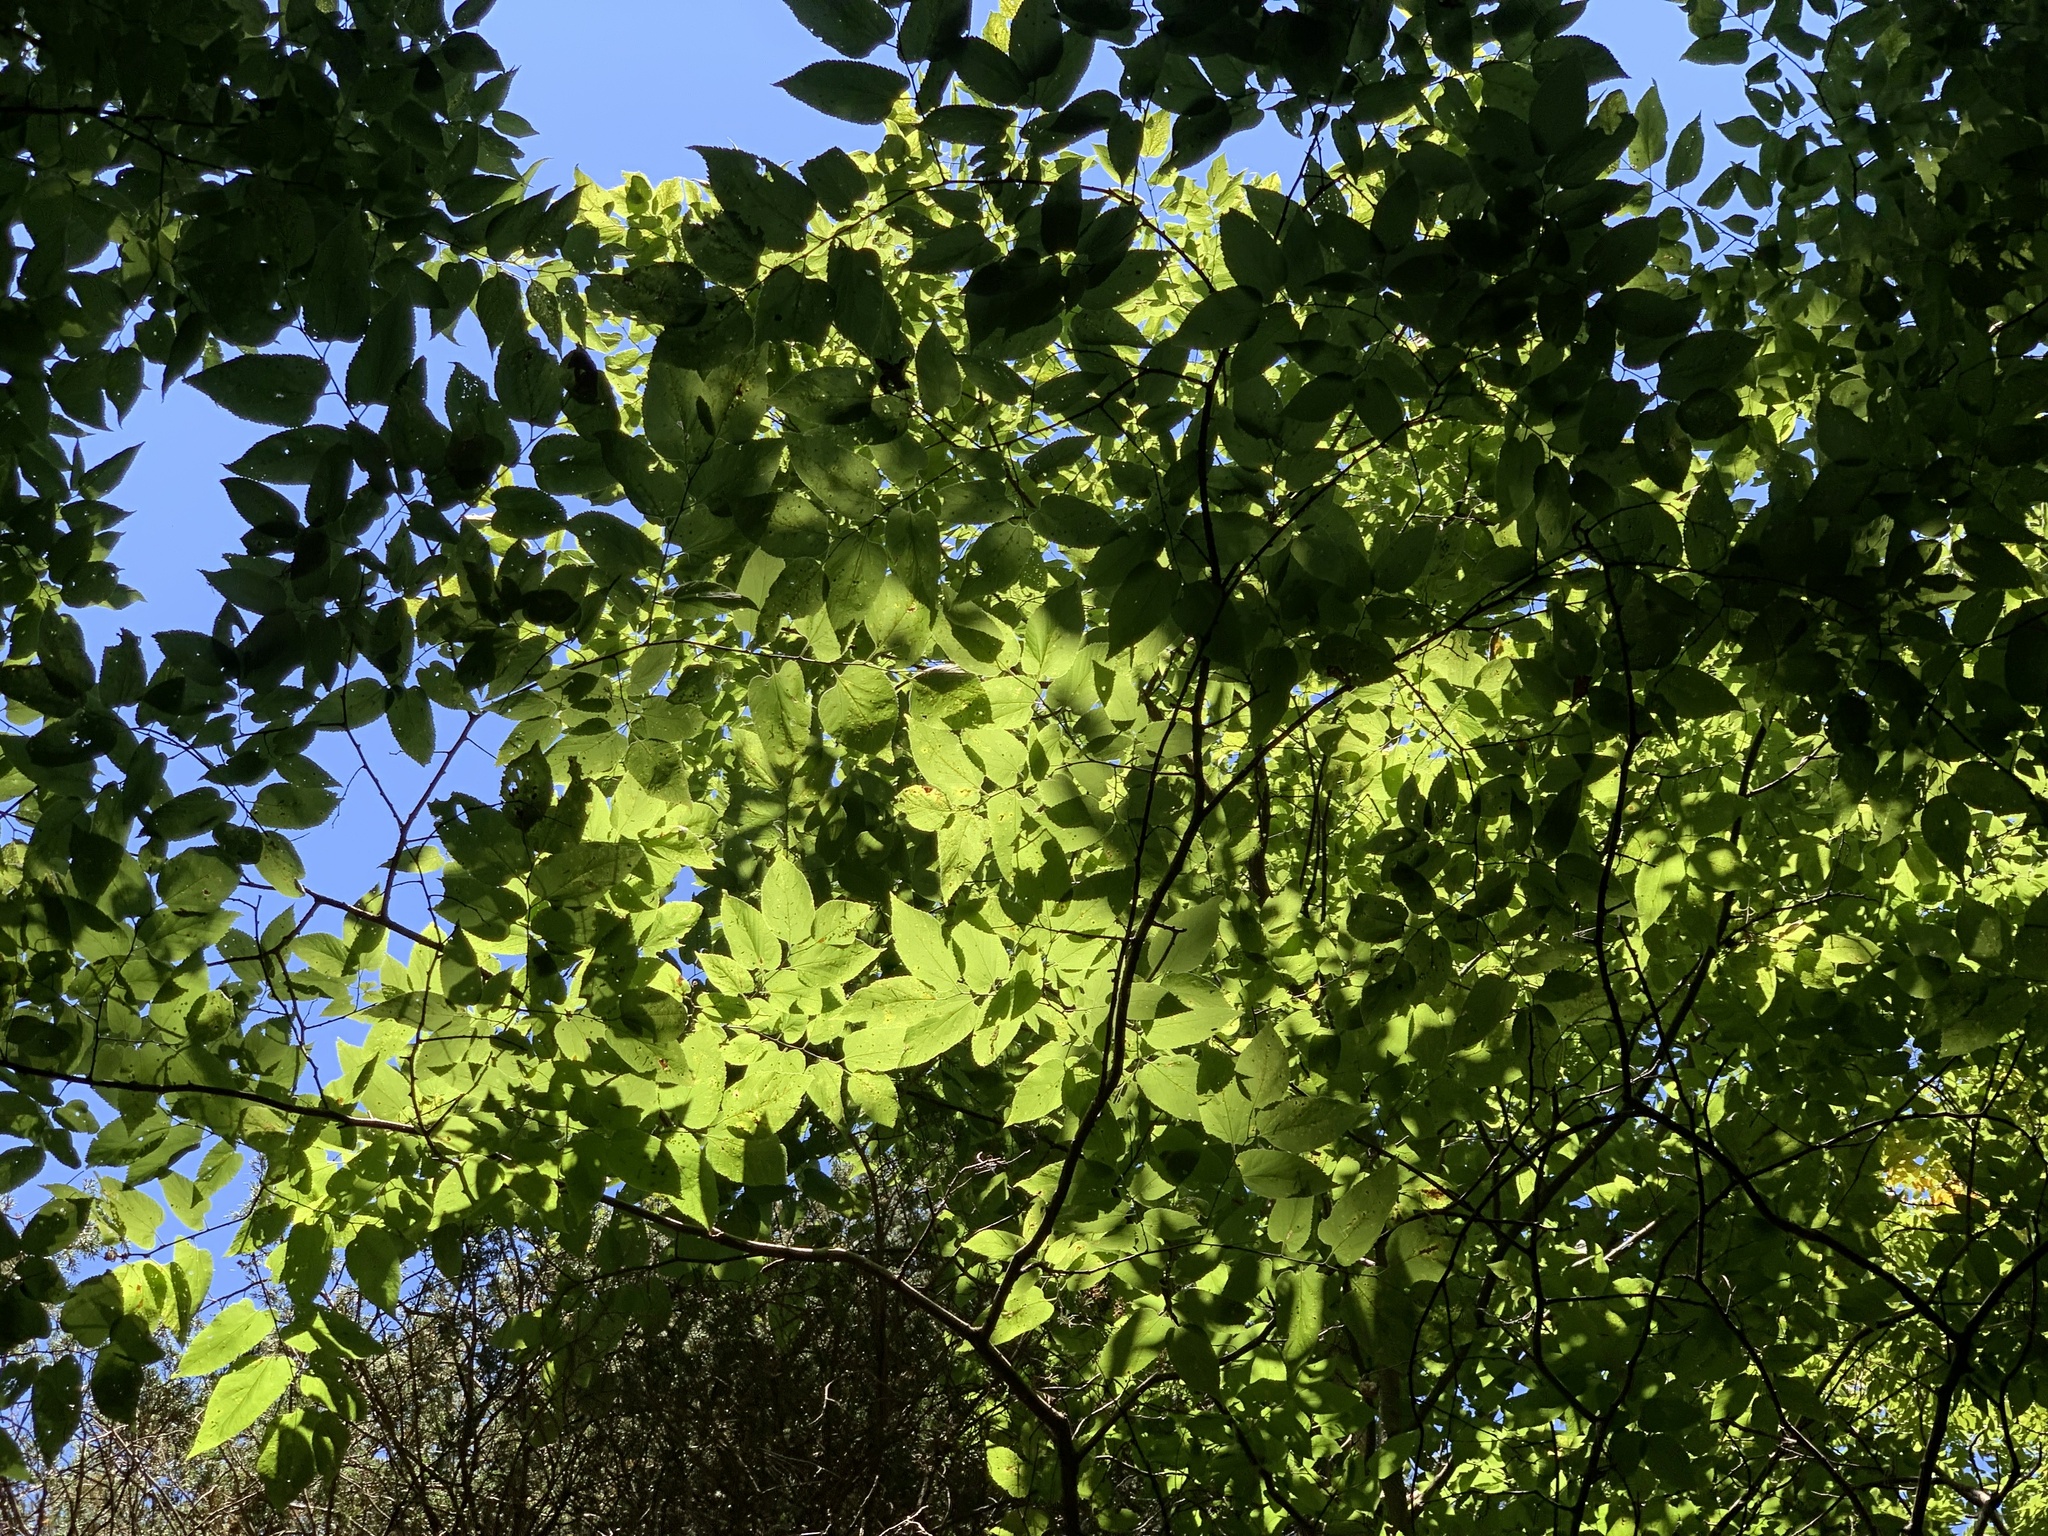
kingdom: Plantae
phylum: Tracheophyta
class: Magnoliopsida
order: Rosales
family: Cannabaceae
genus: Celtis
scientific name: Celtis occidentalis
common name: Common hackberry
